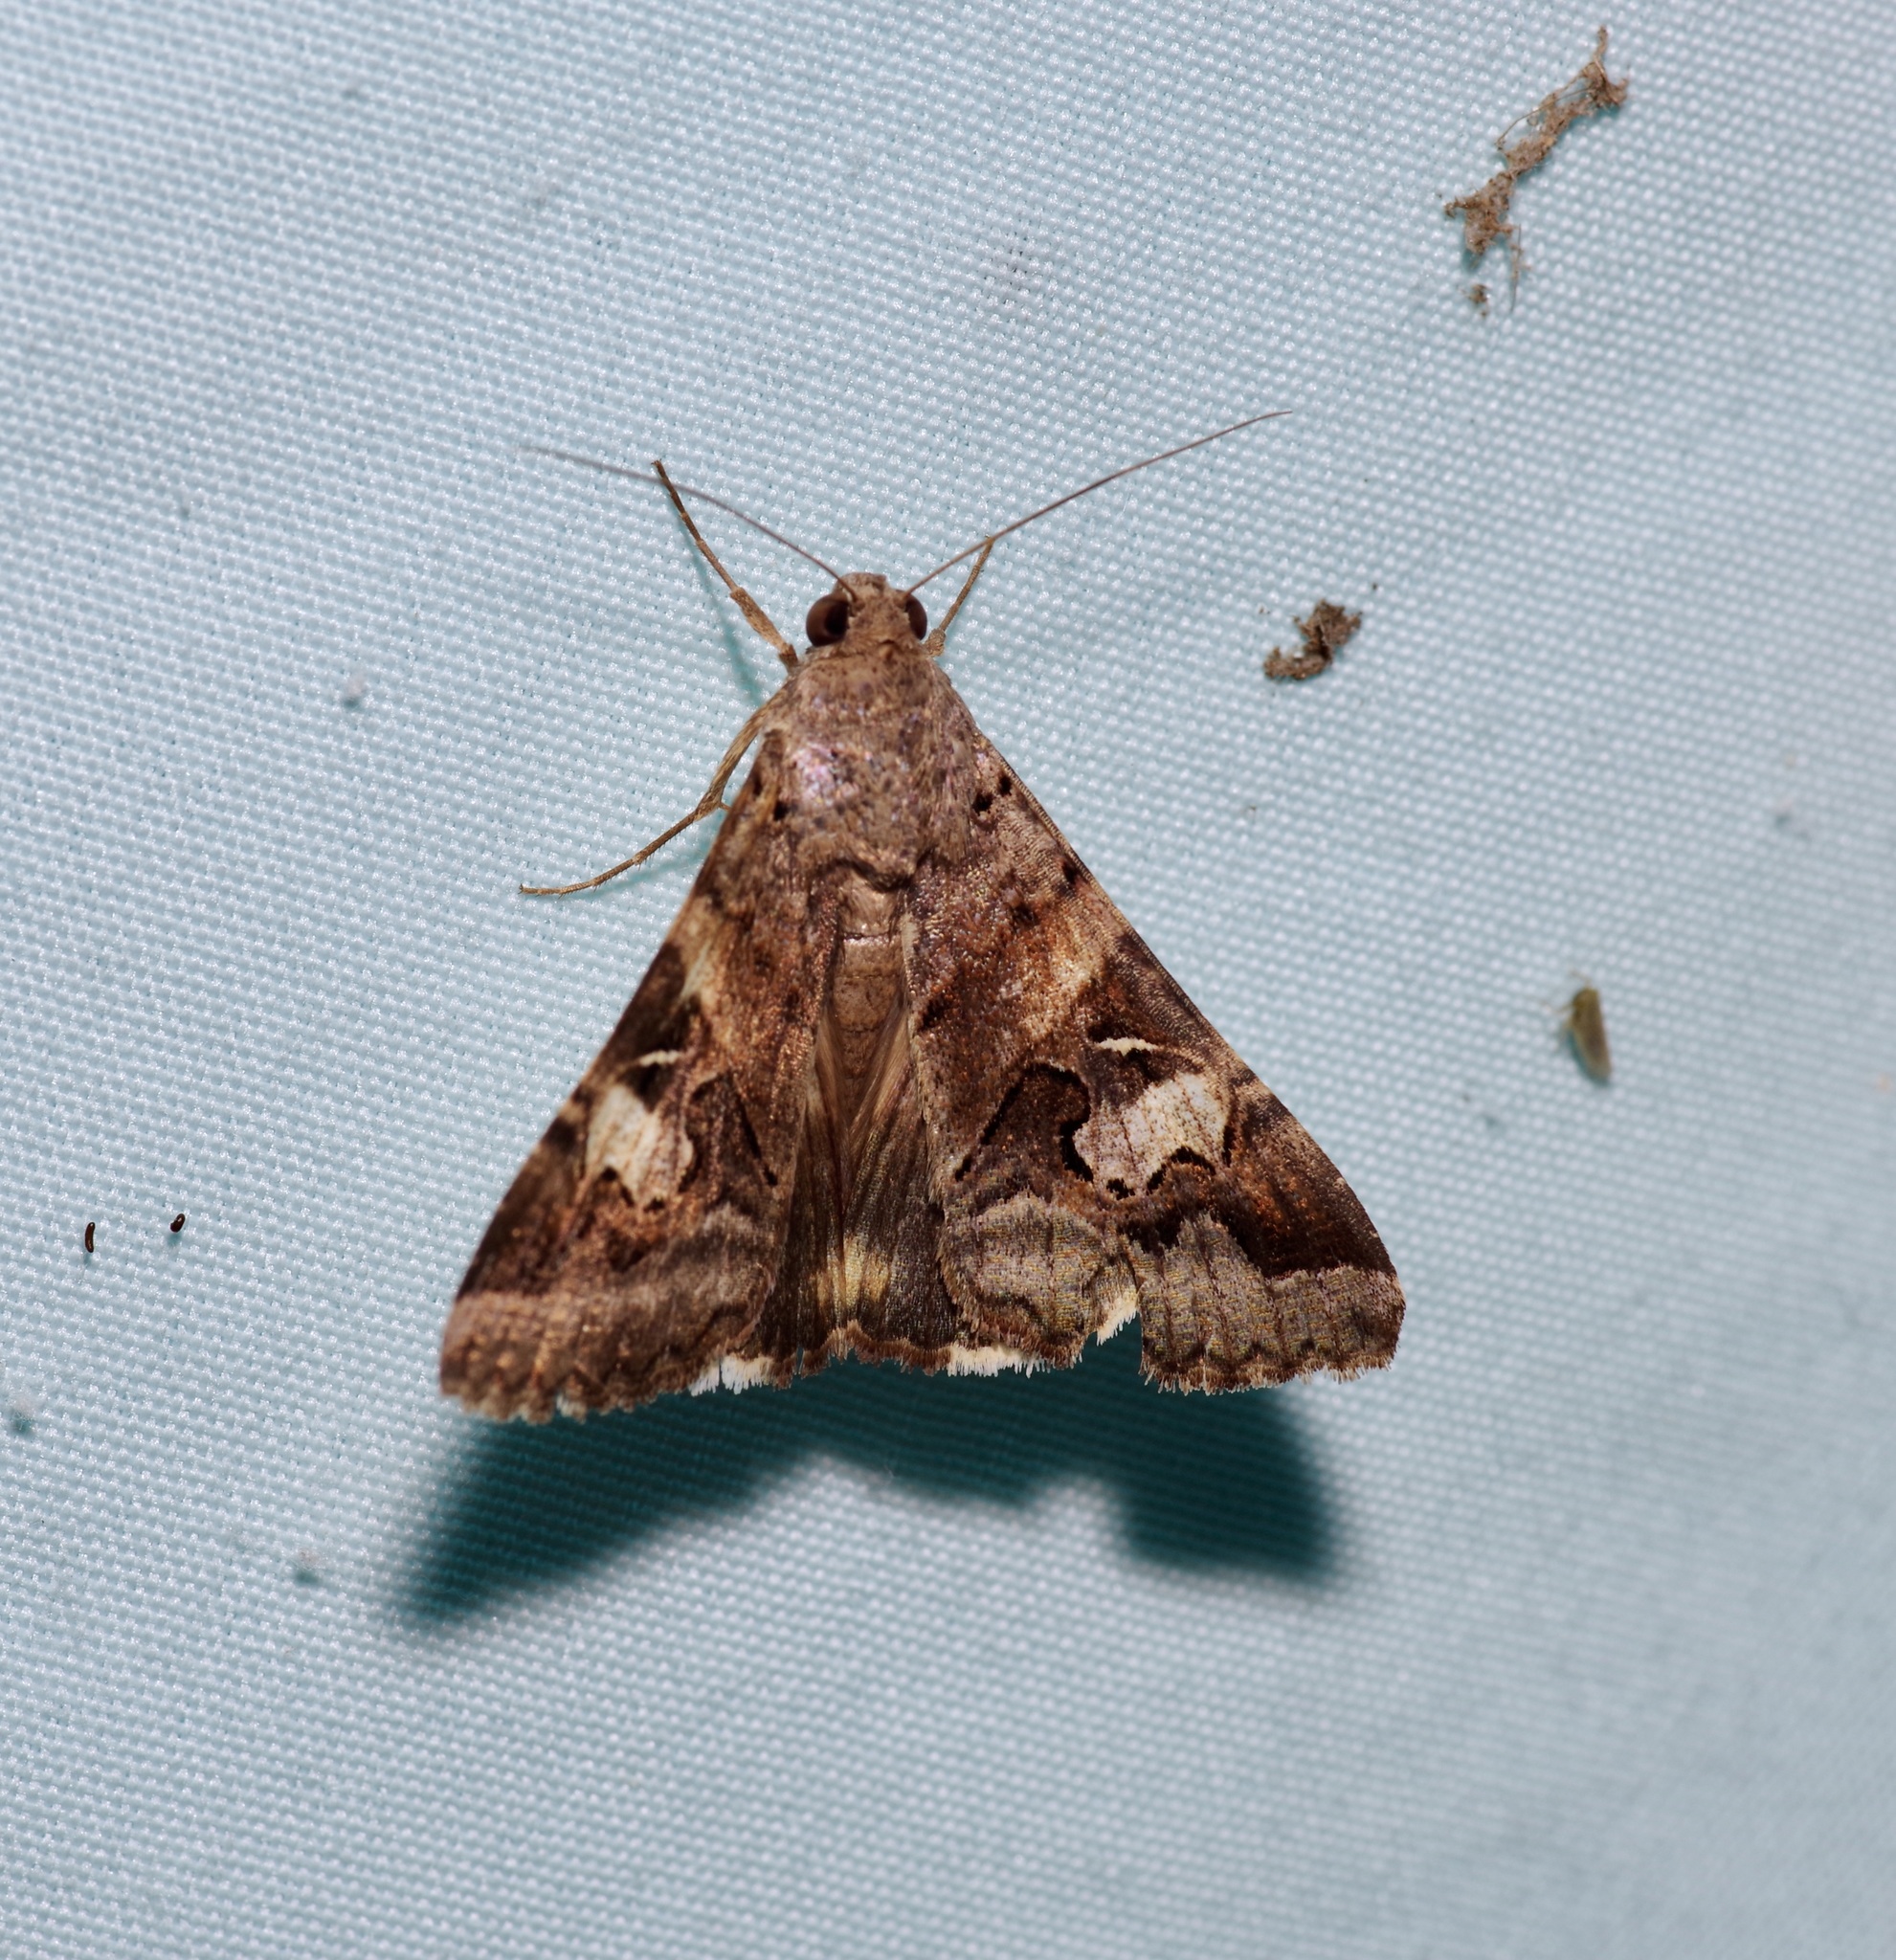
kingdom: Animalia
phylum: Arthropoda
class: Insecta
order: Lepidoptera
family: Erebidae
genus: Melipotis
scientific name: Melipotis indomita
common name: Moth
